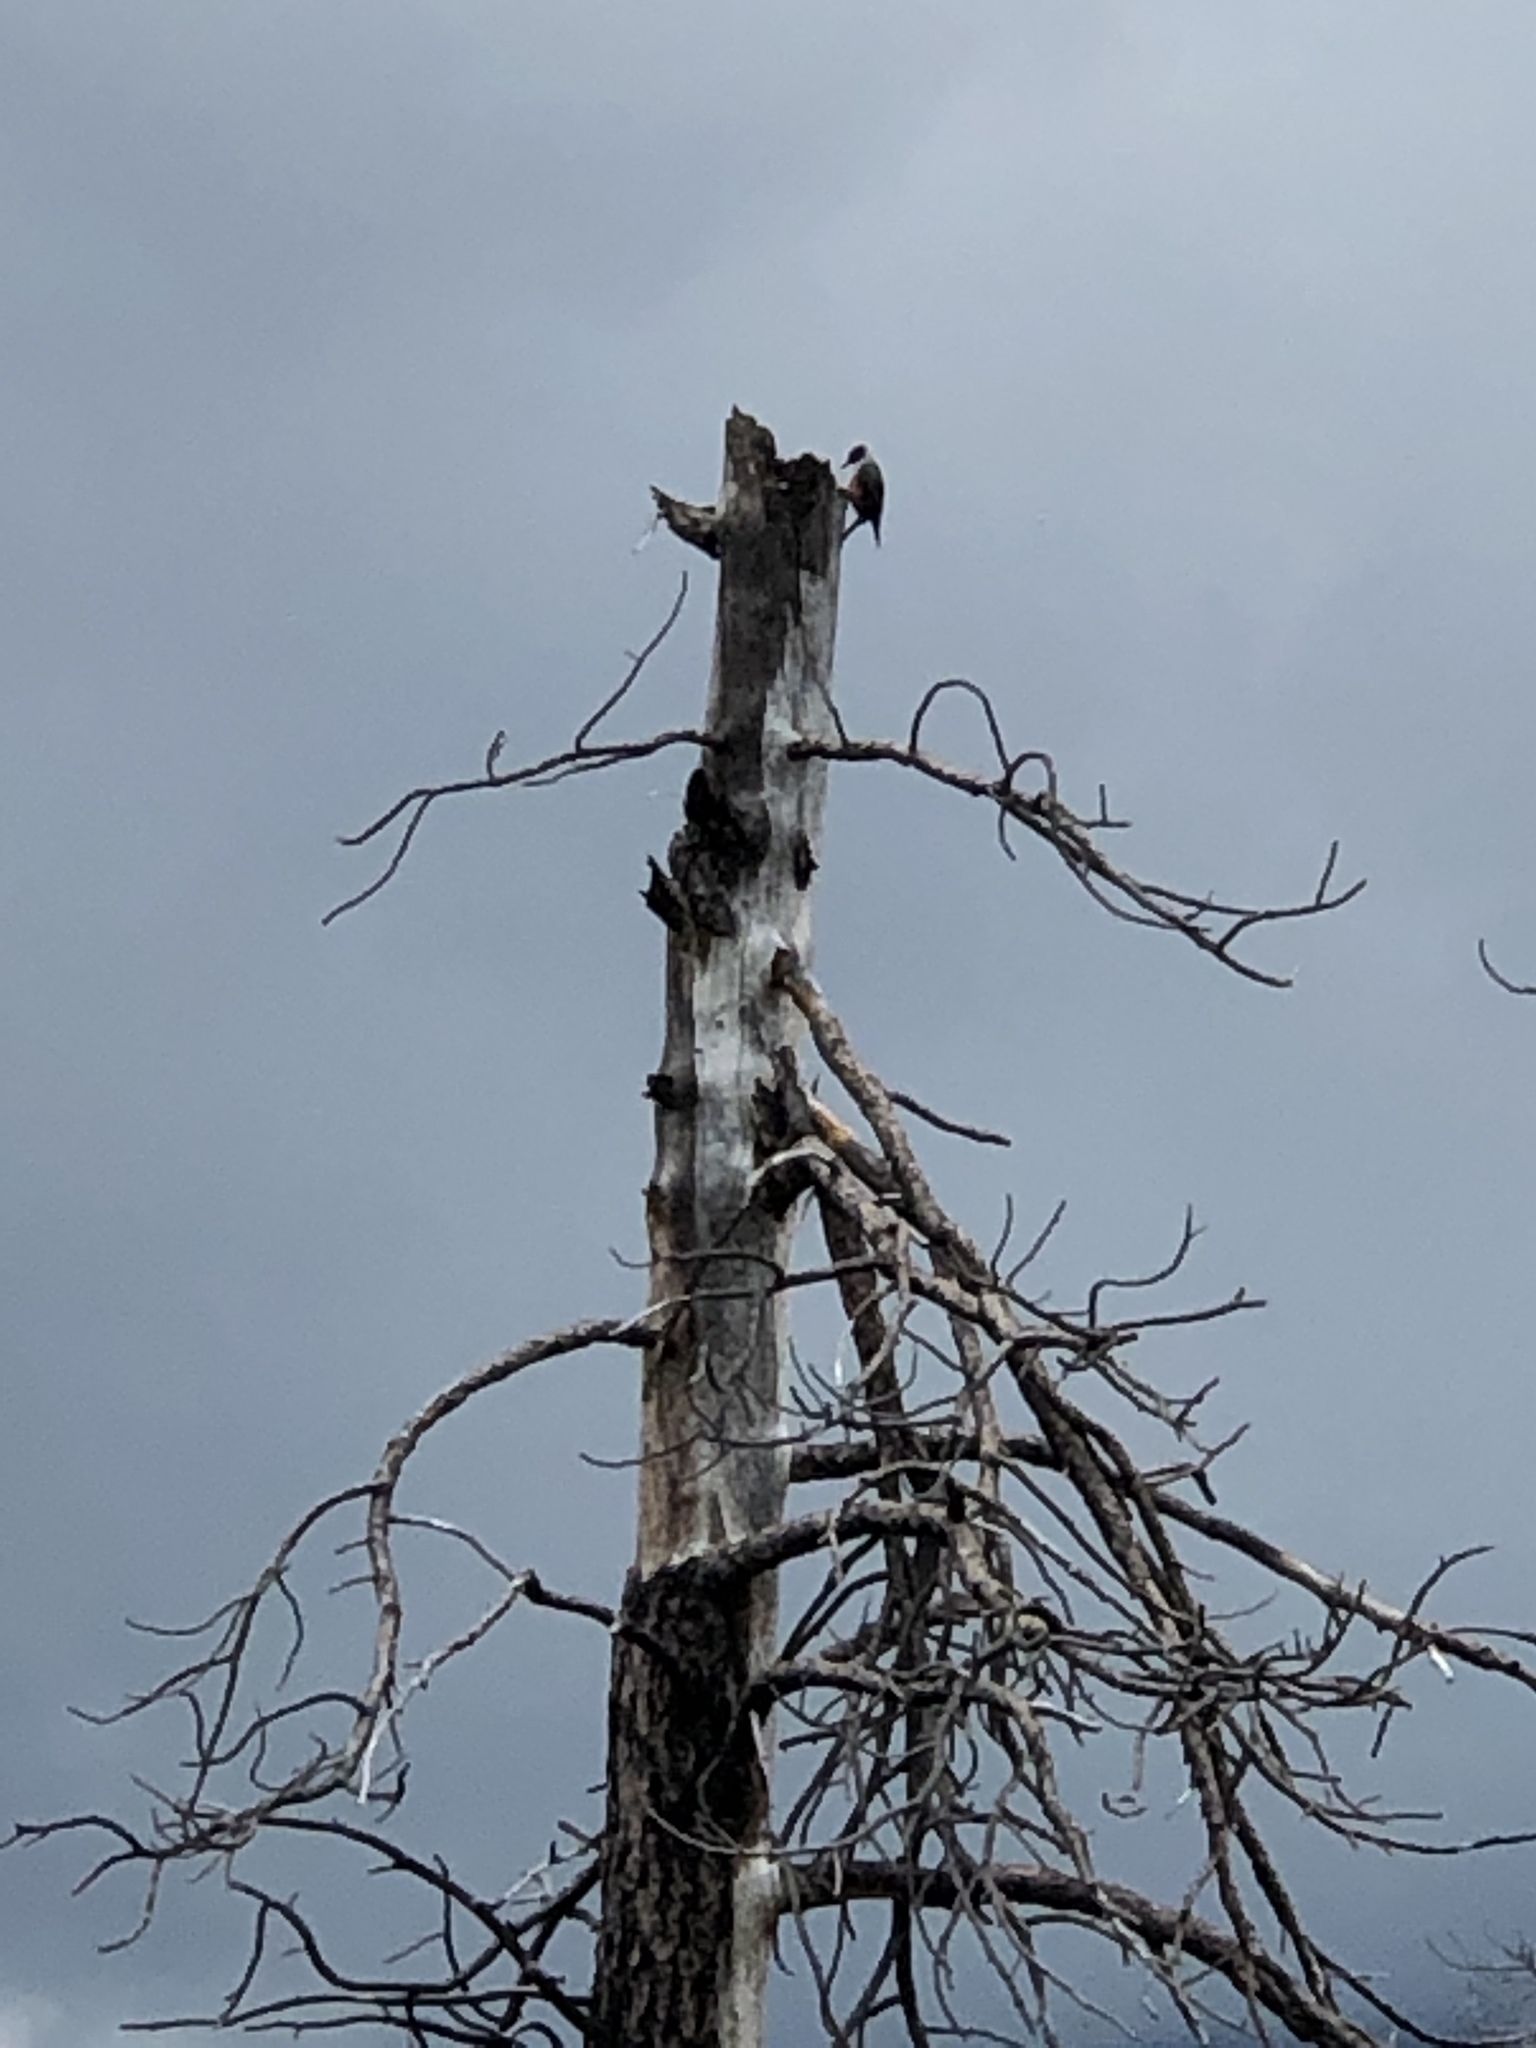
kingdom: Animalia
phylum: Chordata
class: Aves
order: Piciformes
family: Picidae
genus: Melanerpes
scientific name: Melanerpes lewis
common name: Lewis's woodpecker
